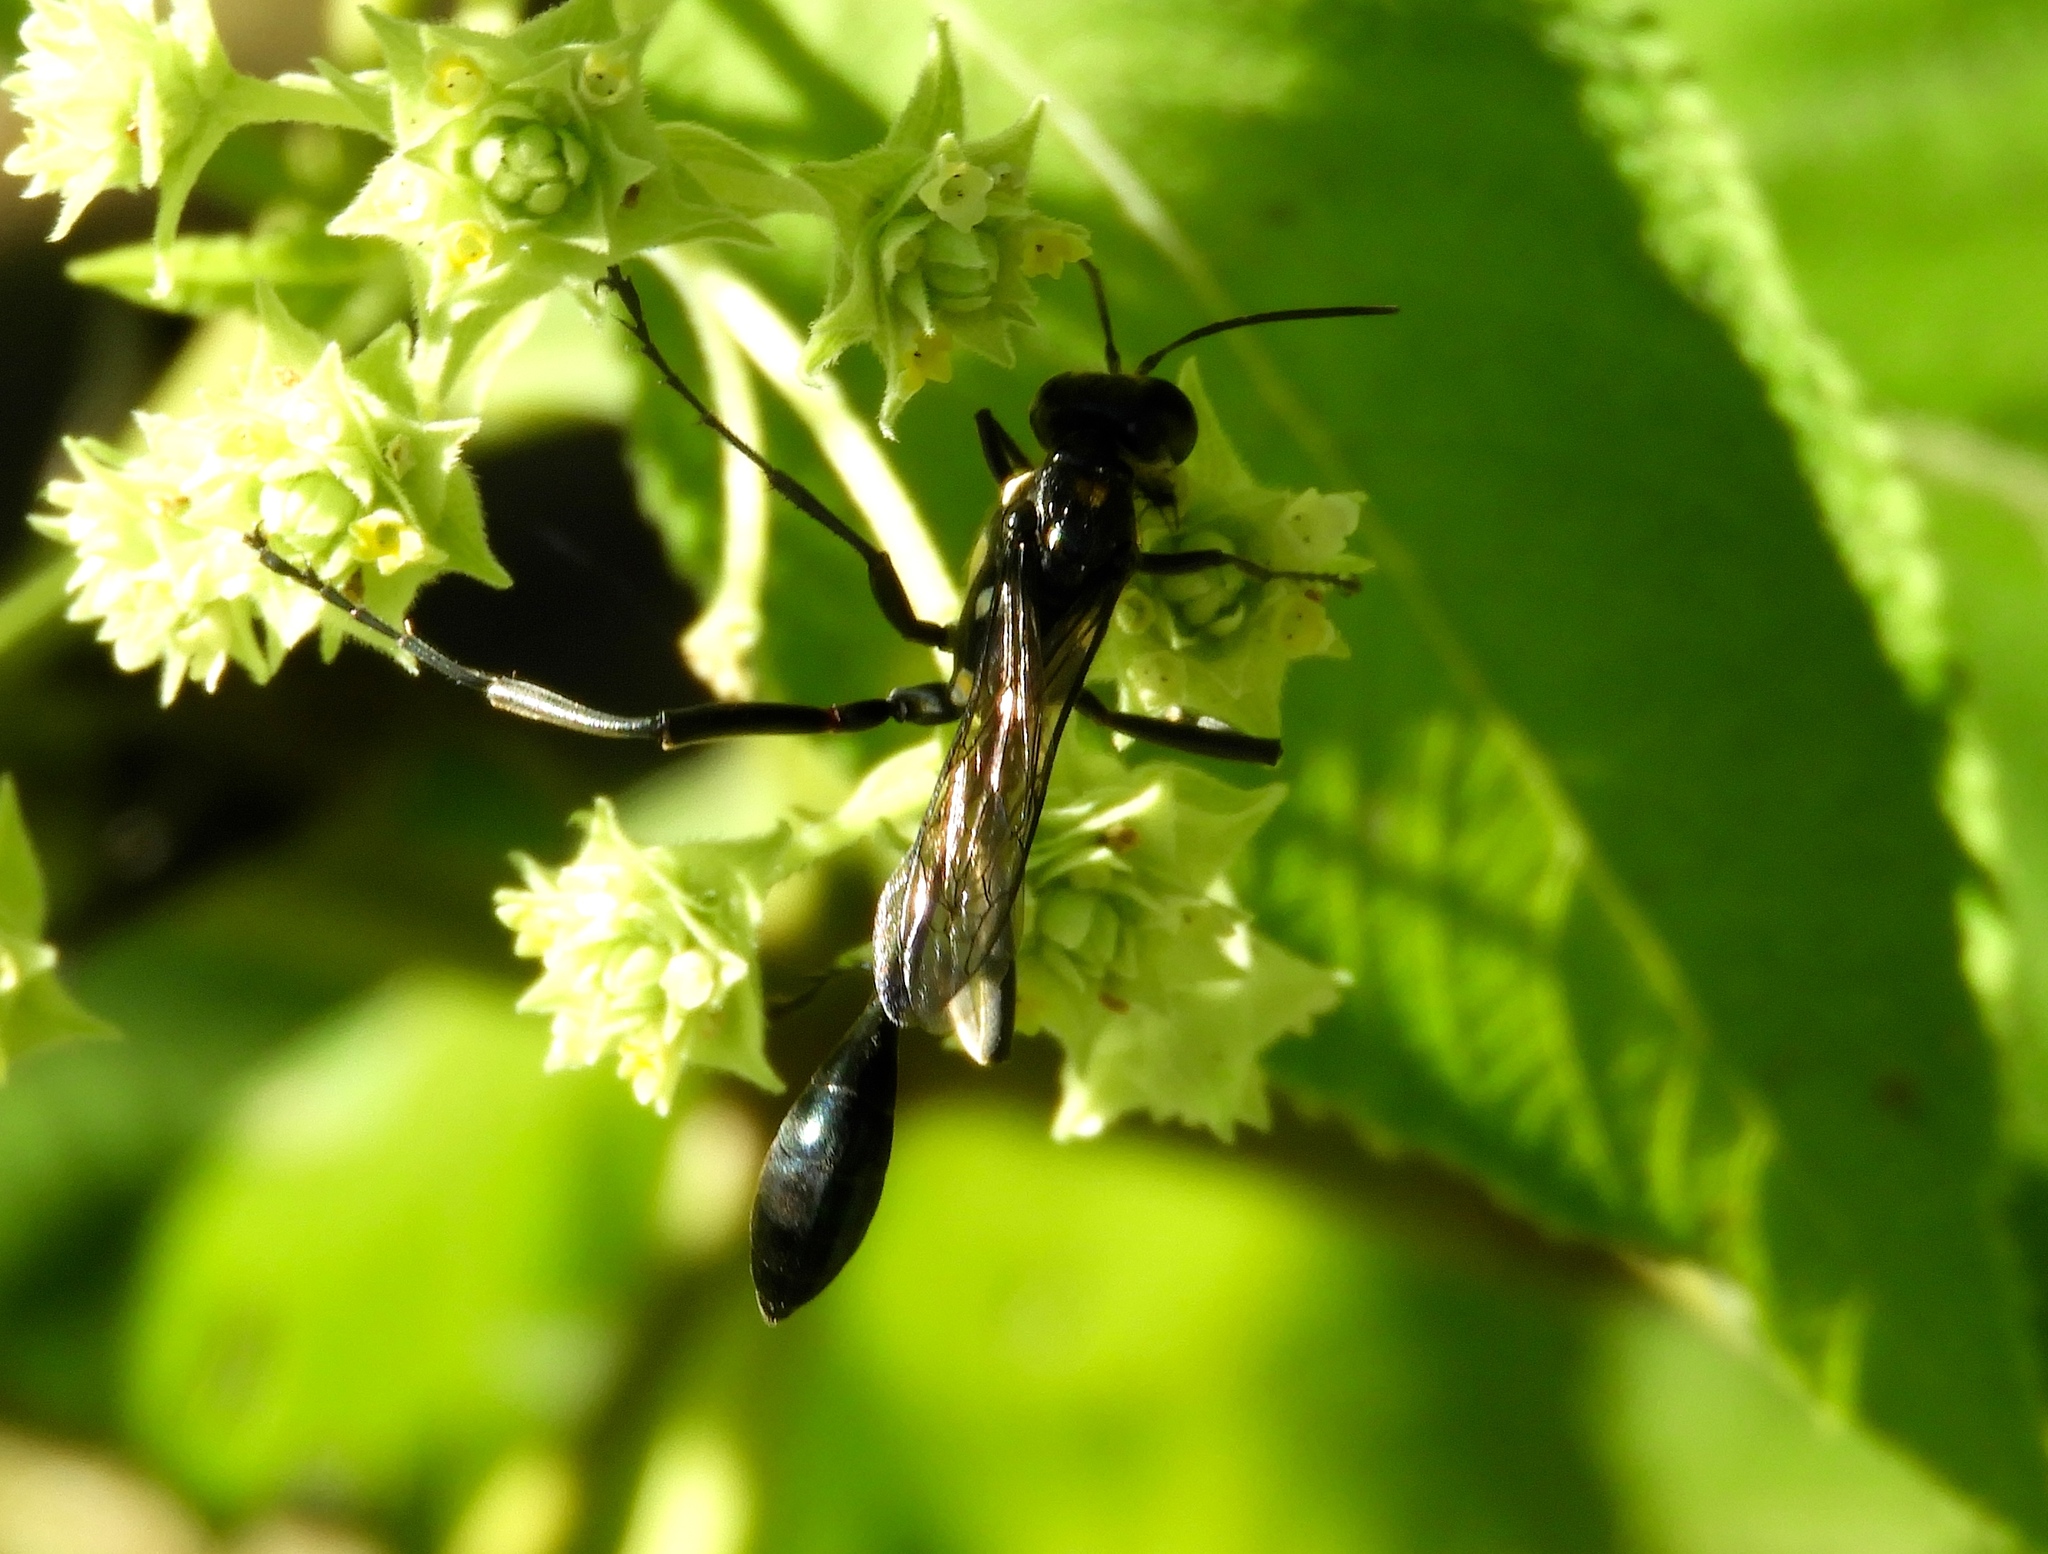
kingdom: Animalia
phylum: Arthropoda
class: Insecta
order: Hymenoptera
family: Sphecidae
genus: Eremnophila
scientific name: Eremnophila
